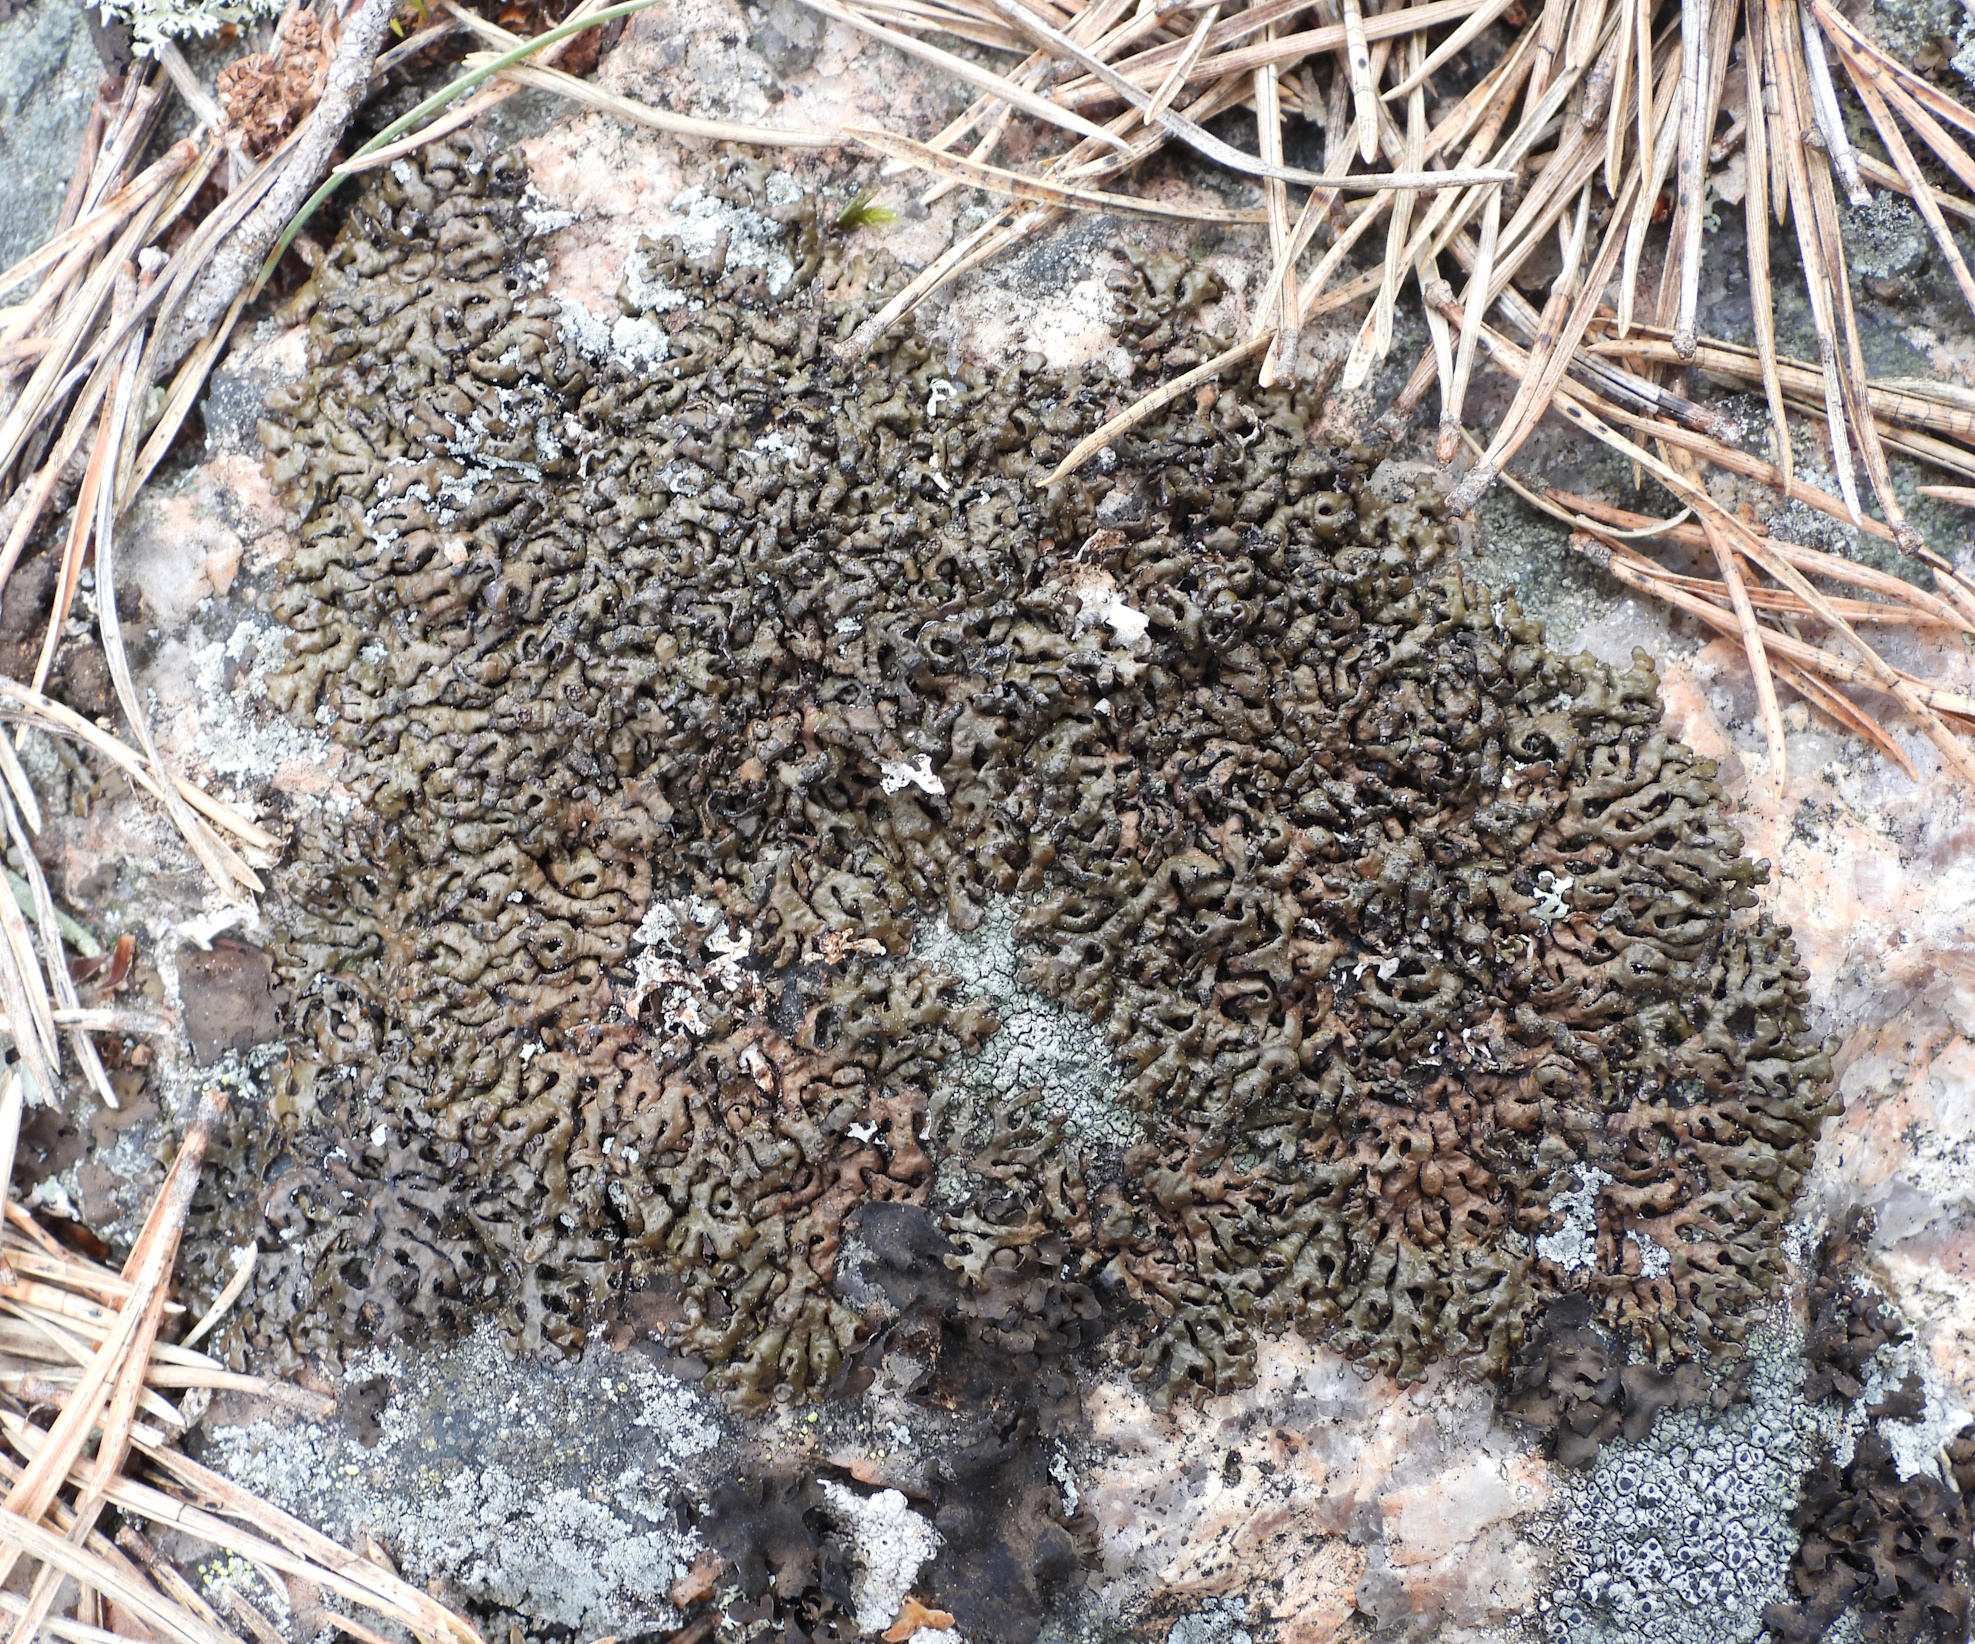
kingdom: Fungi
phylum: Ascomycota
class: Lecanoromycetes
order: Lecanorales
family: Parmeliaceae
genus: Melanelia
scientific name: Melanelia stygia
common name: Alpine camouflage lichen
